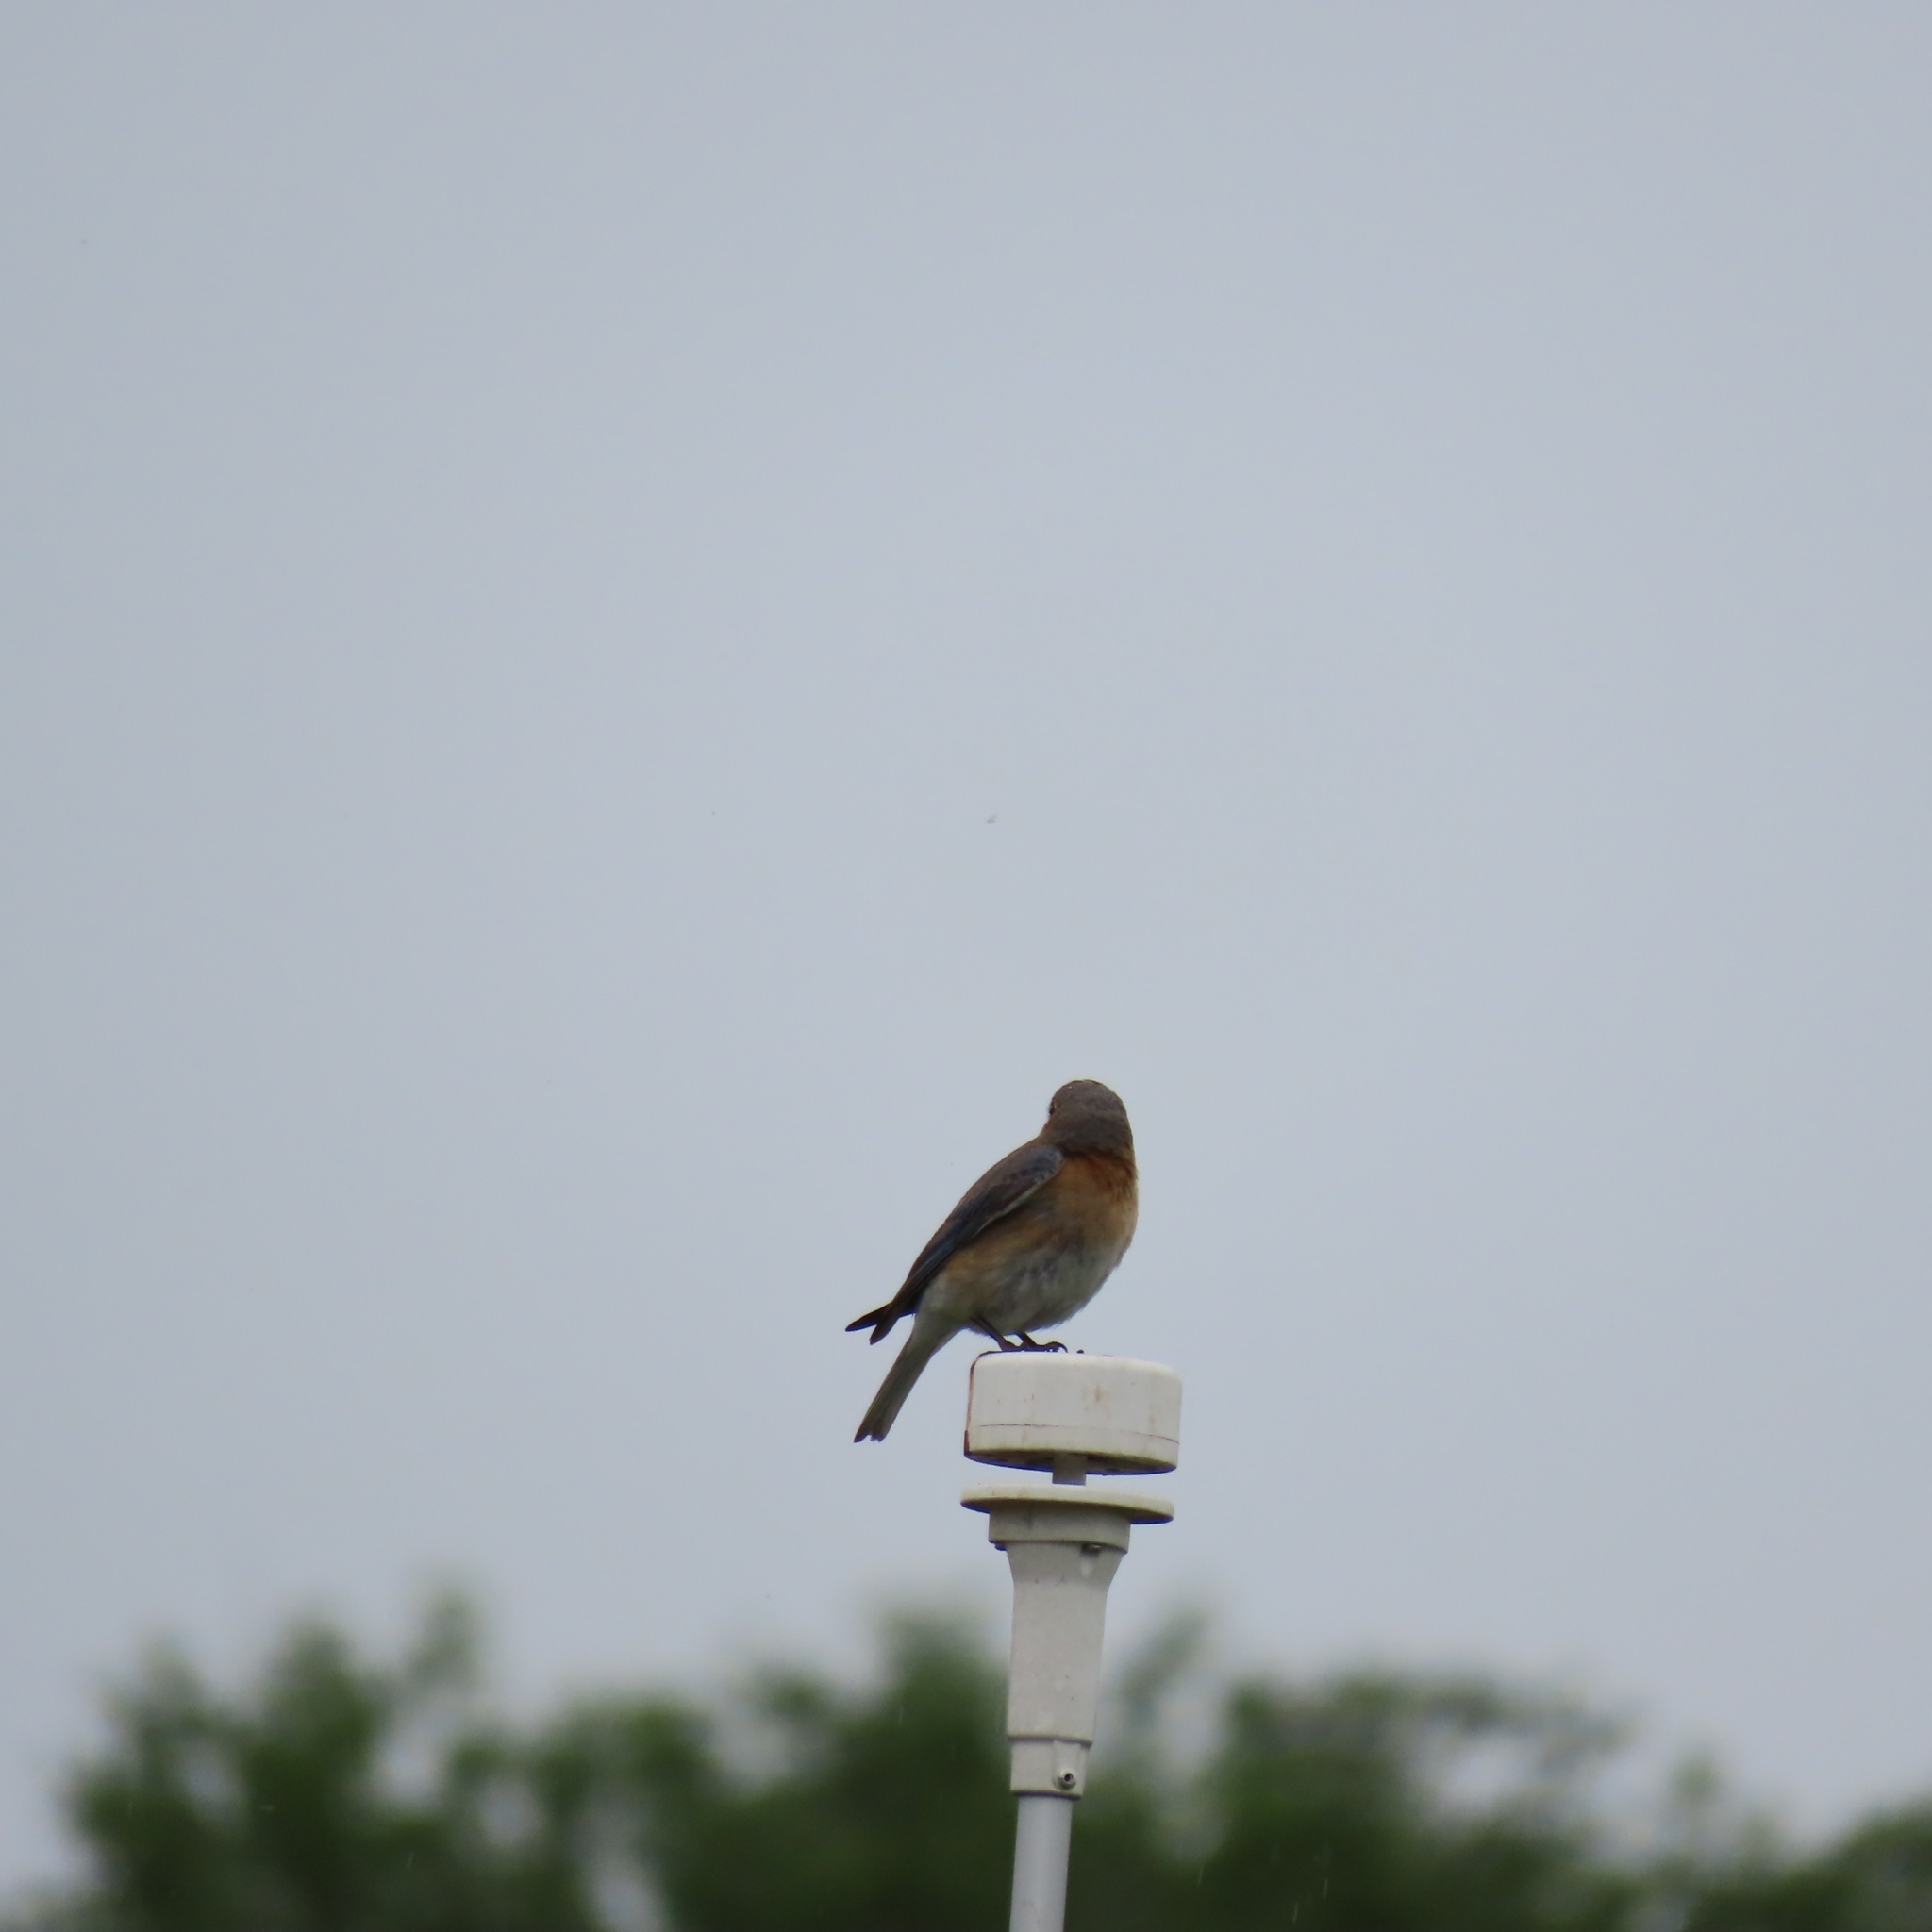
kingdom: Animalia
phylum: Chordata
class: Aves
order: Passeriformes
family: Turdidae
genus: Sialia
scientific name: Sialia sialis
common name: Eastern bluebird
